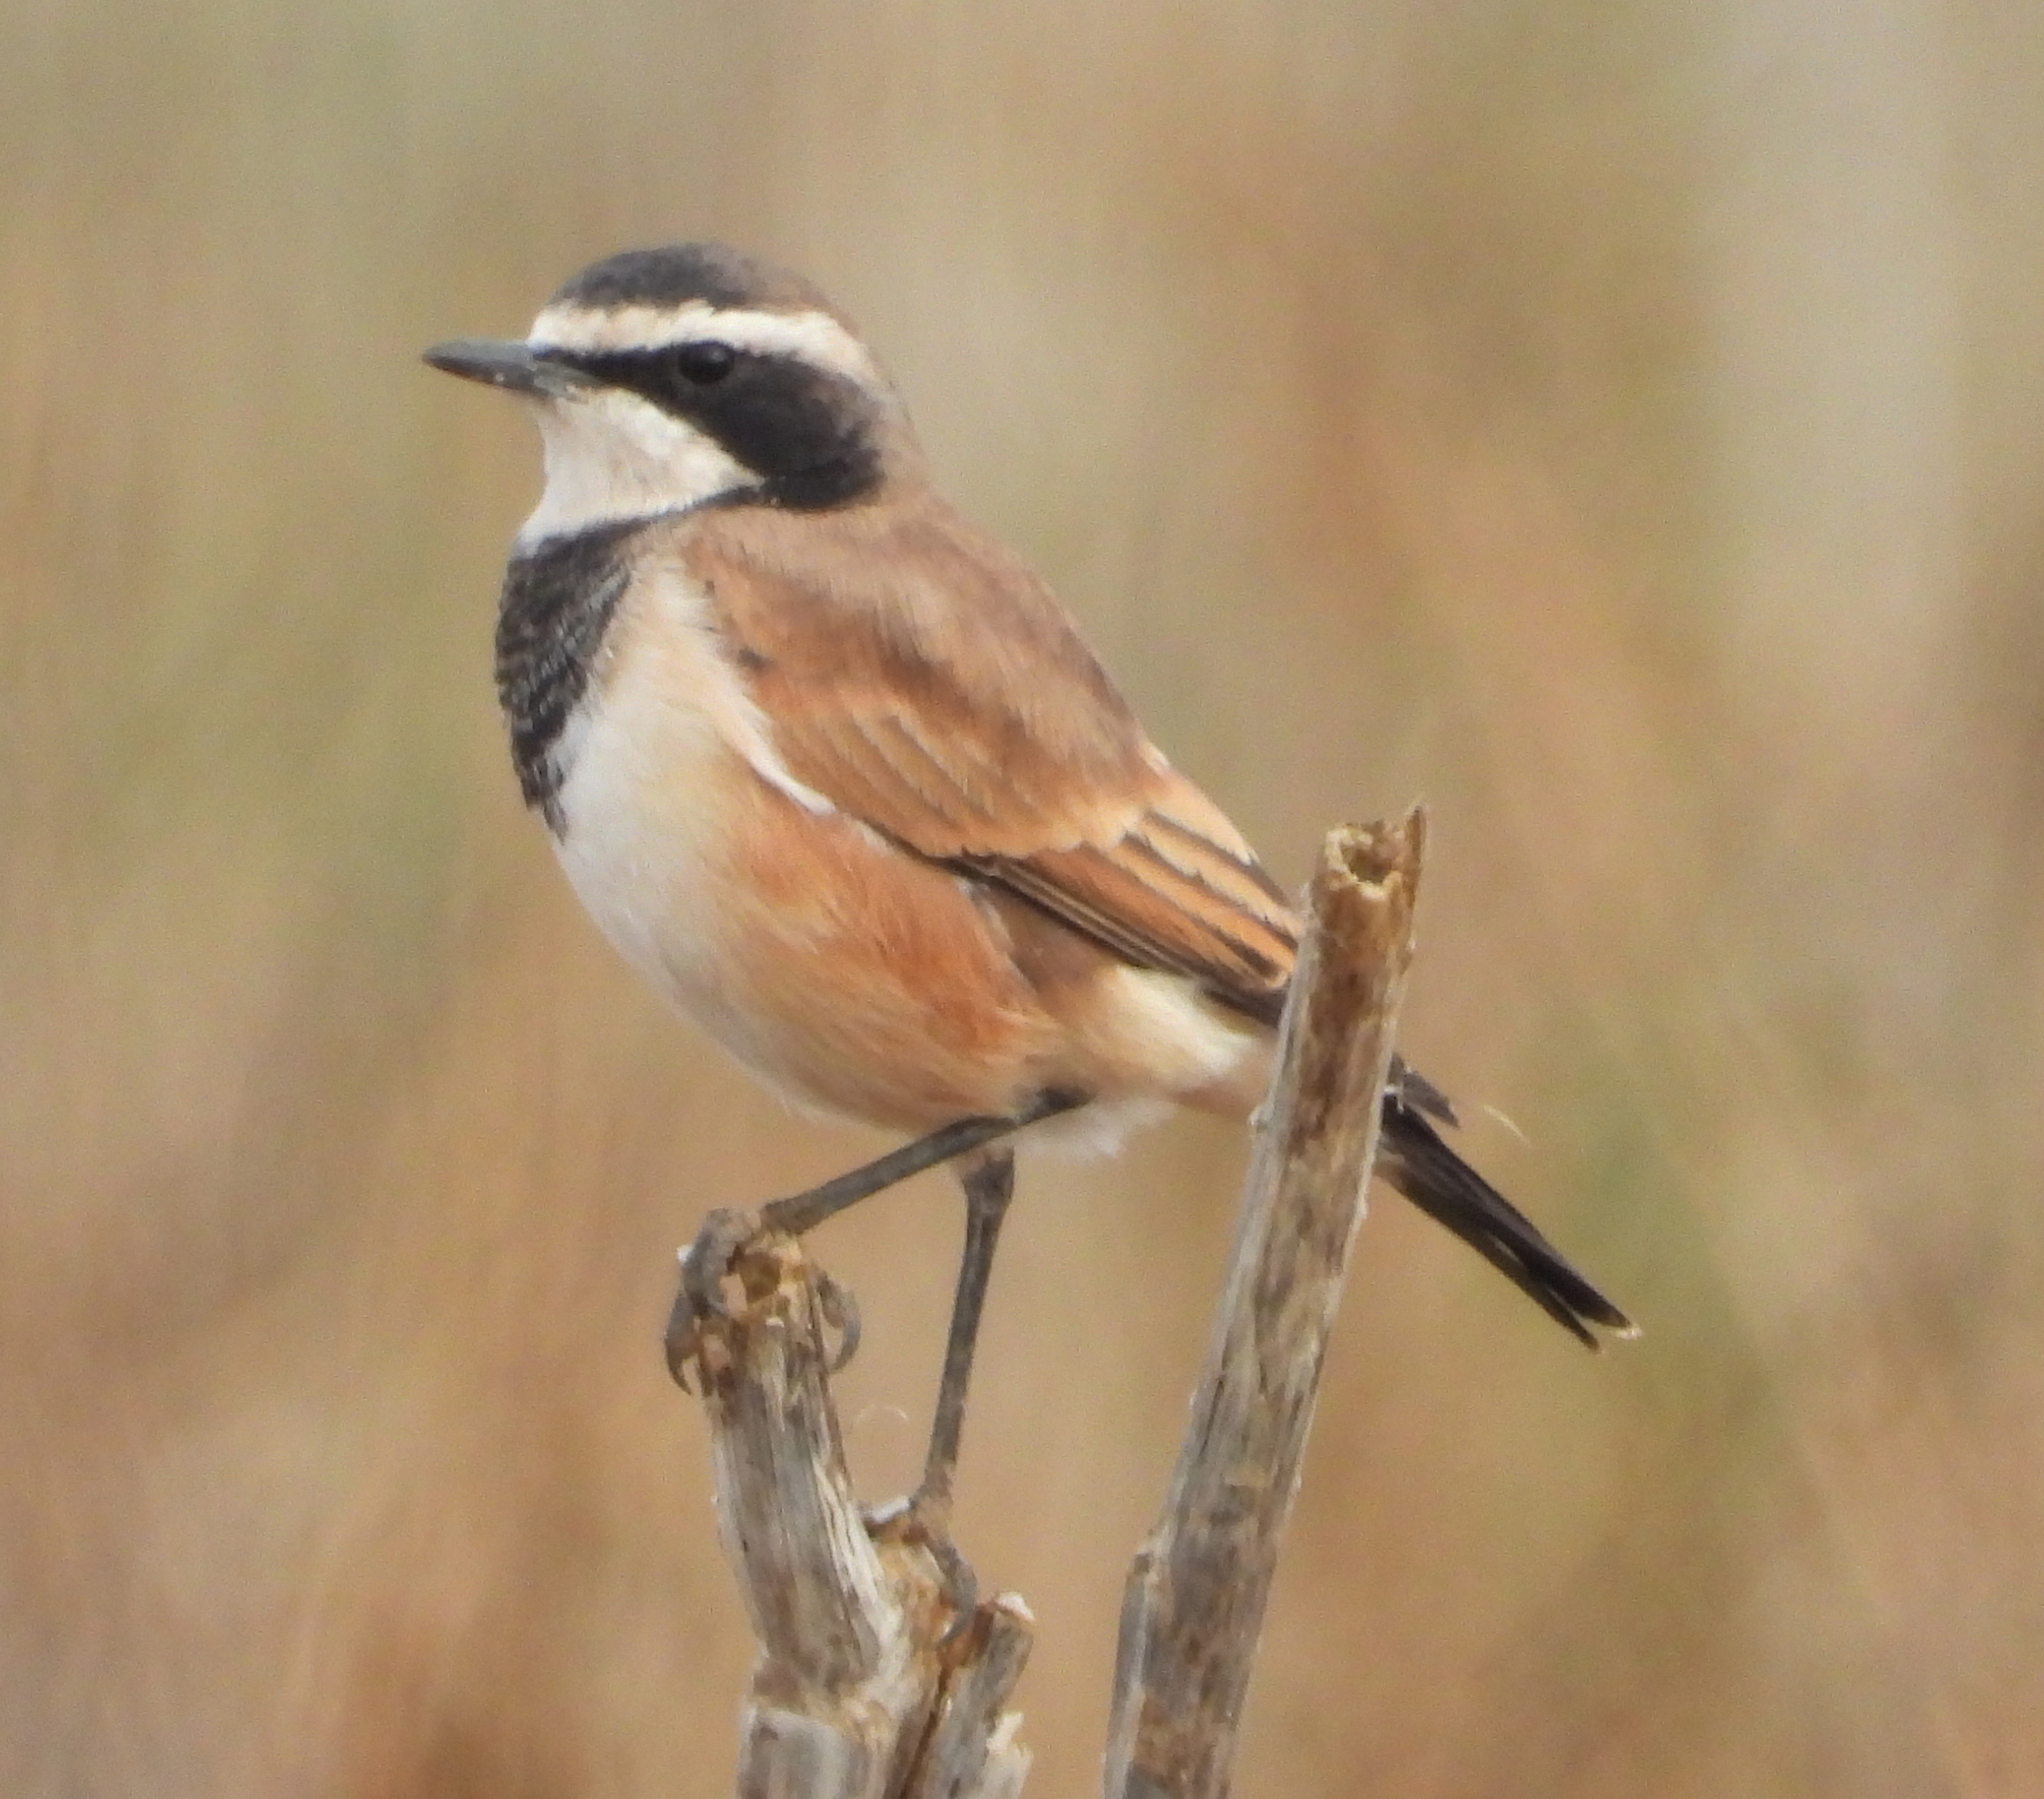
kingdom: Animalia
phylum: Chordata
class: Aves
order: Passeriformes
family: Muscicapidae
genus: Oenanthe
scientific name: Oenanthe pileata
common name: Capped wheatear
